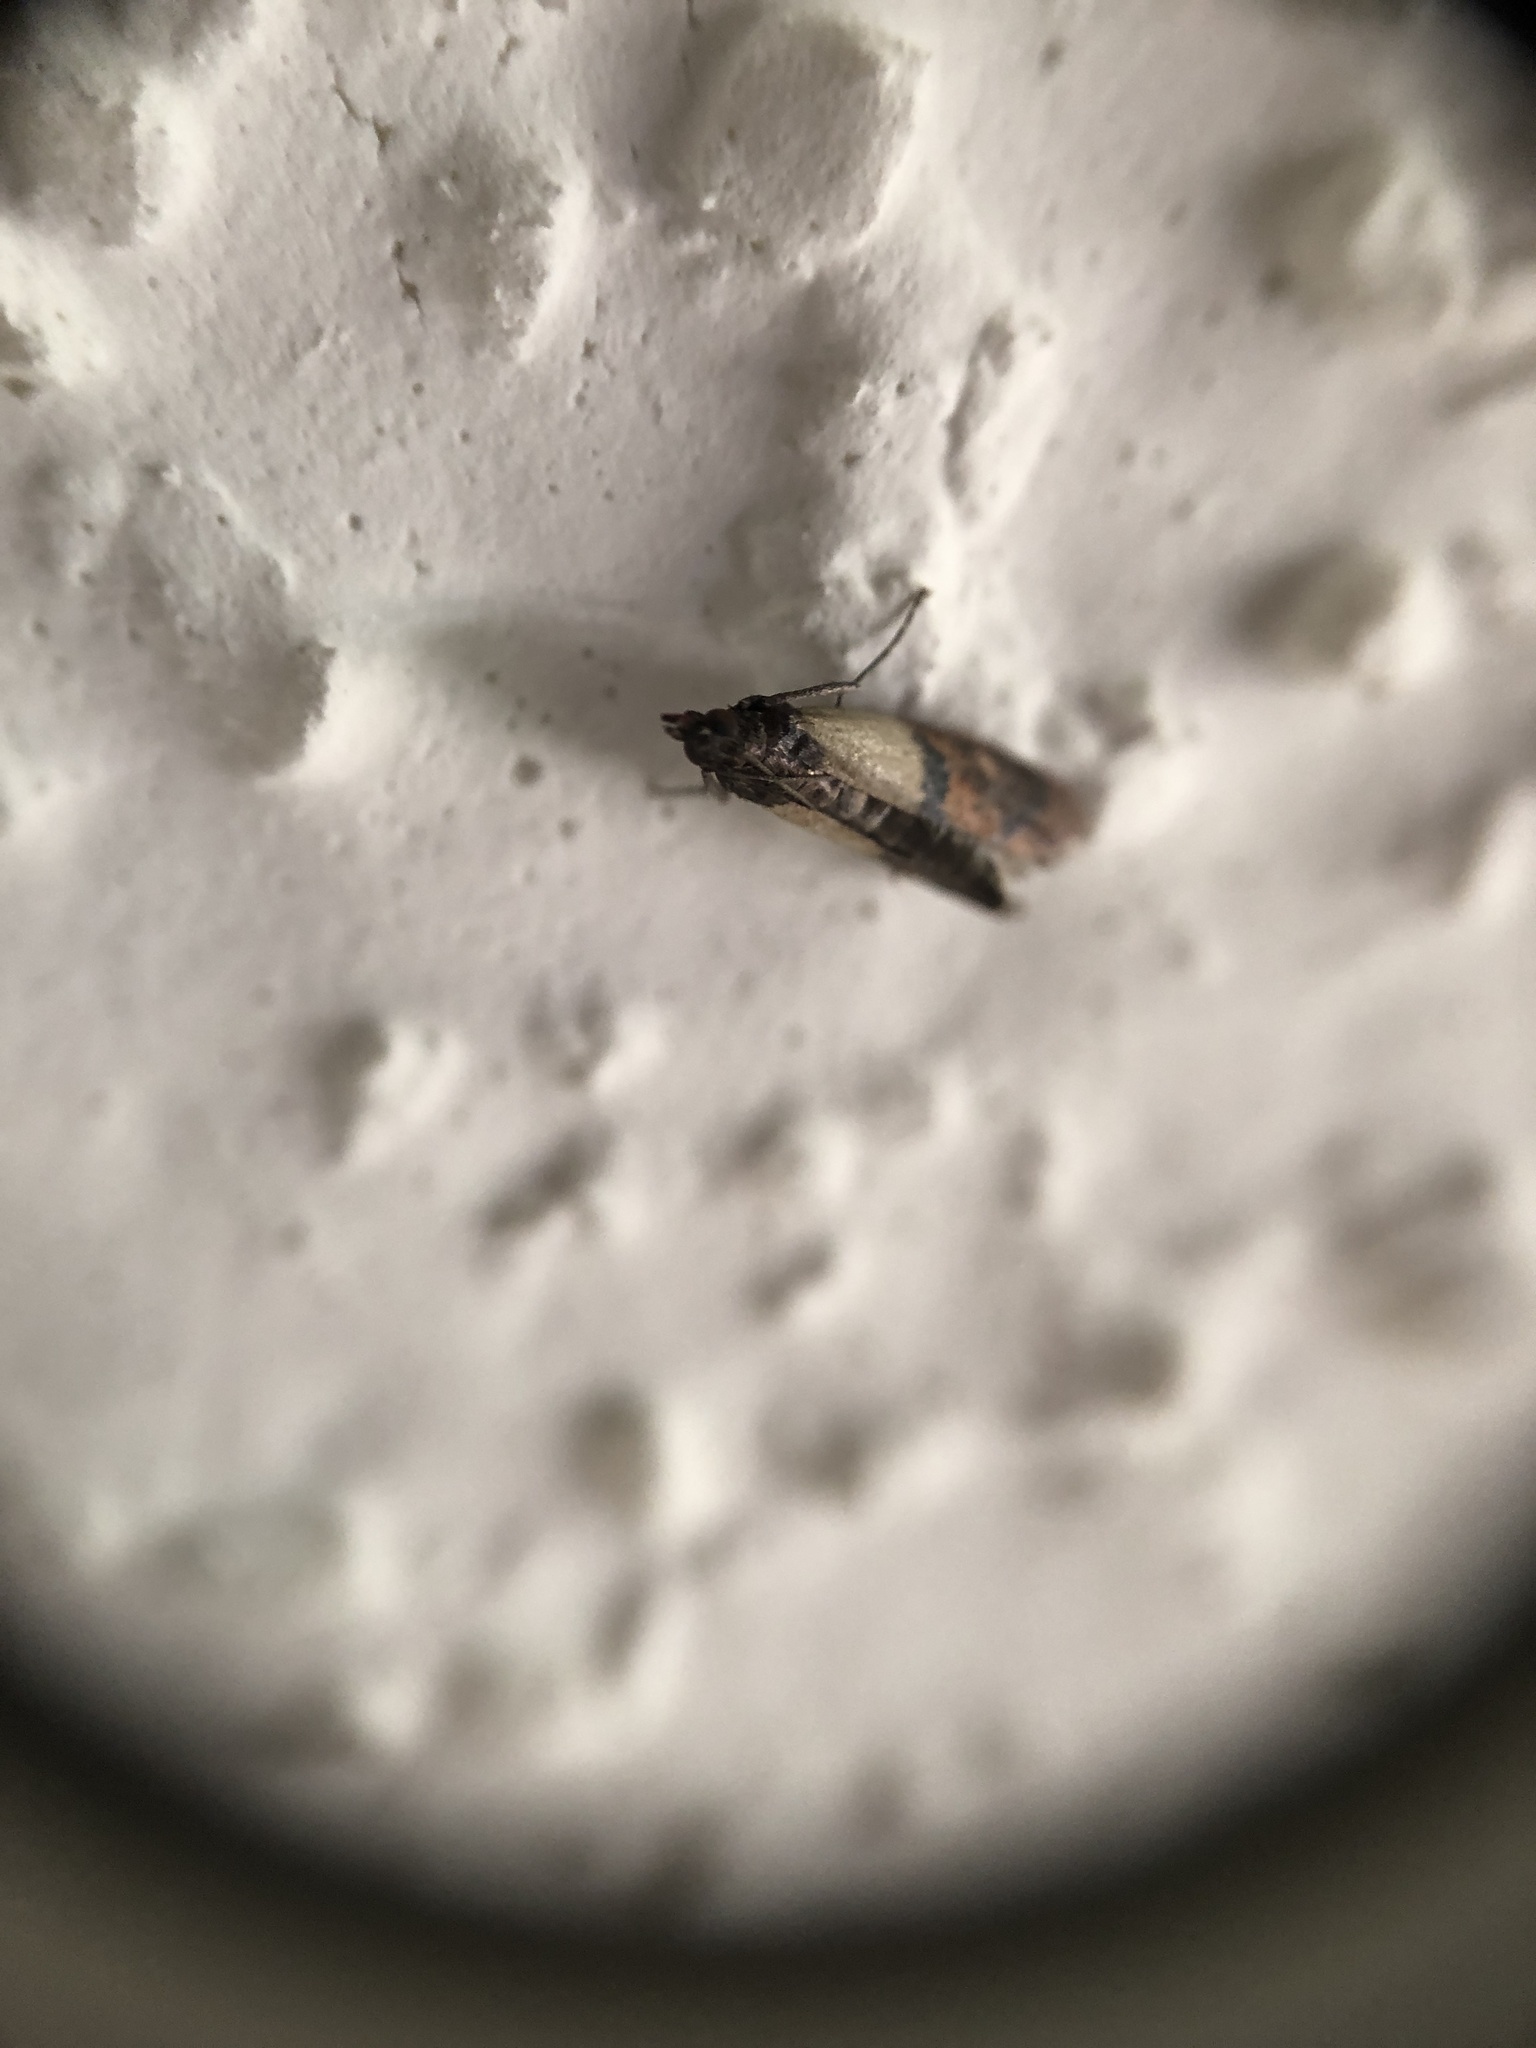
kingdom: Animalia
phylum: Arthropoda
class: Insecta
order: Lepidoptera
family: Pyralidae
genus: Plodia
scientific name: Plodia interpunctella
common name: Indian meal moth
